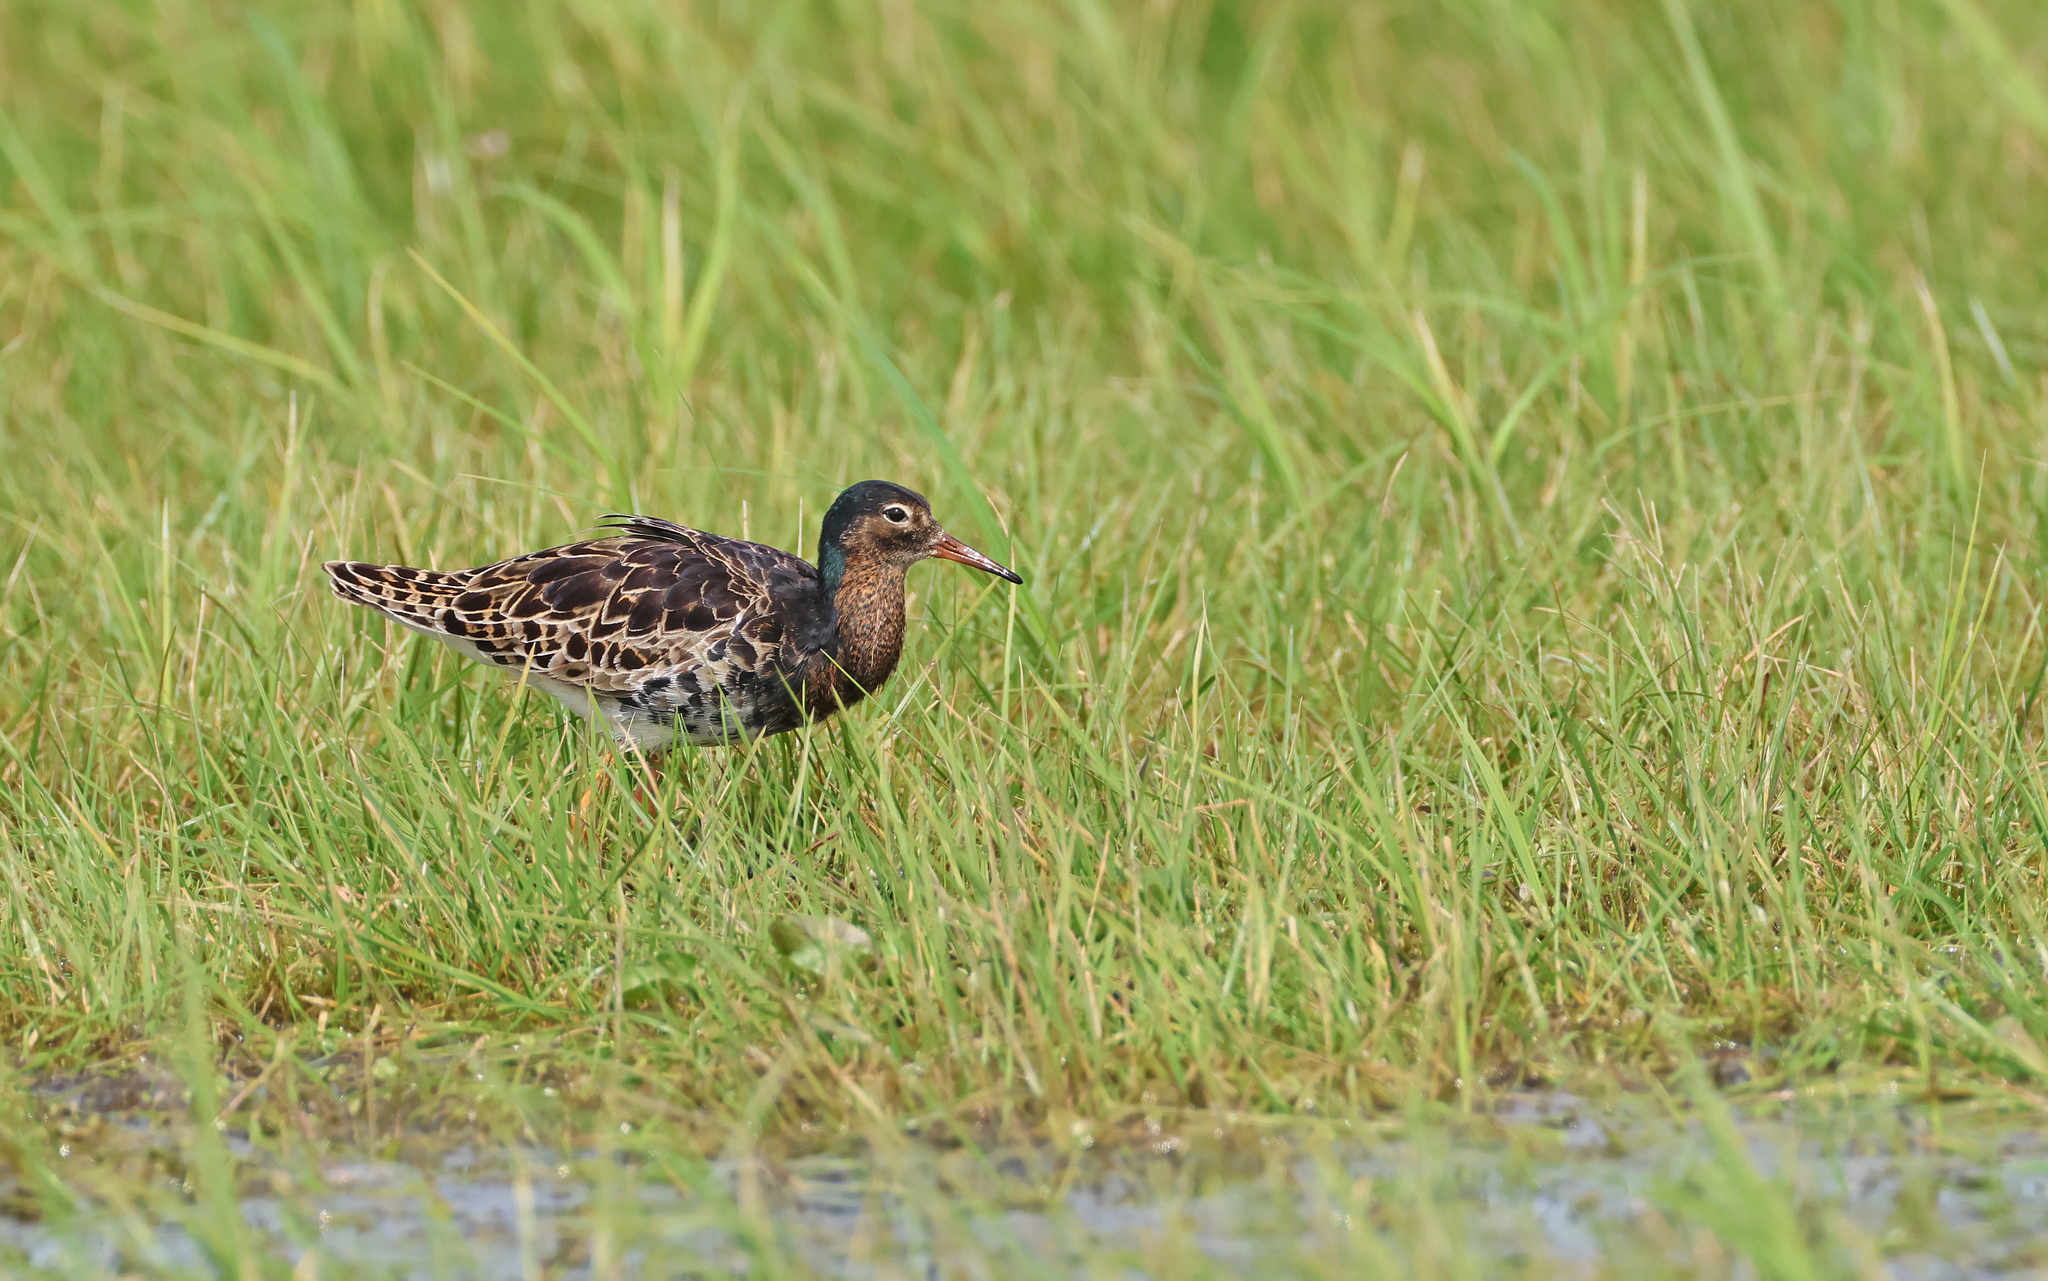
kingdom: Animalia
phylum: Chordata
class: Aves
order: Charadriiformes
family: Scolopacidae
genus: Calidris
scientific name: Calidris pugnax
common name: Ruff
